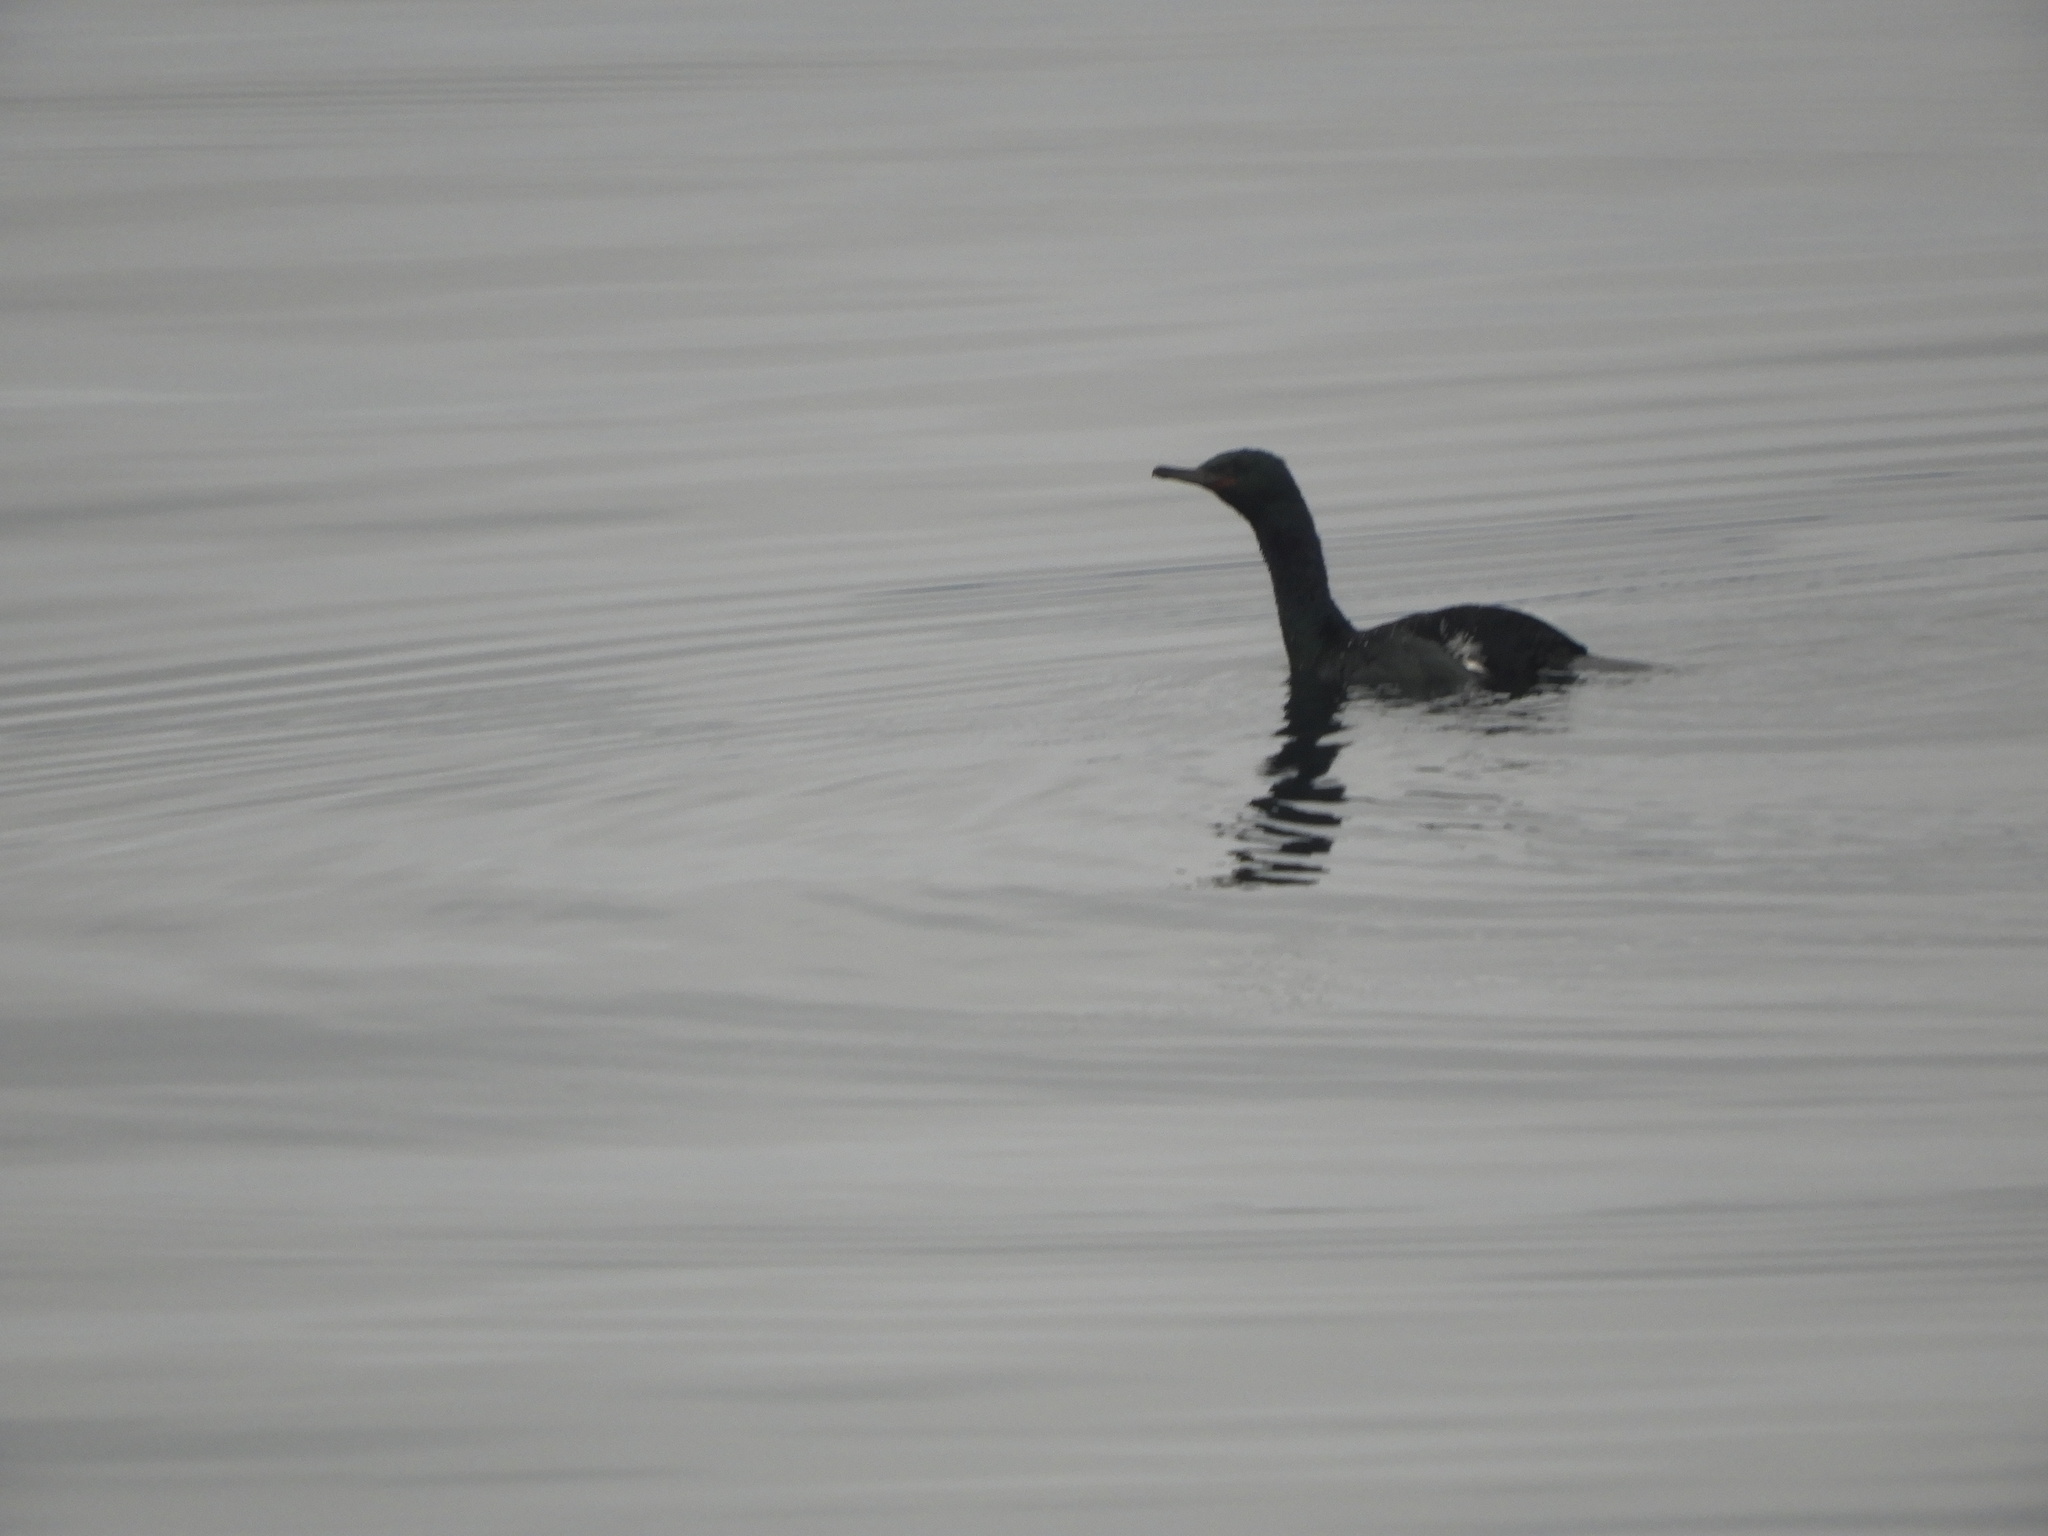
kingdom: Animalia
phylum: Chordata
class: Aves
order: Suliformes
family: Phalacrocoracidae
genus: Phalacrocorax
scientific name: Phalacrocorax pelagicus
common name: Pelagic cormorant
